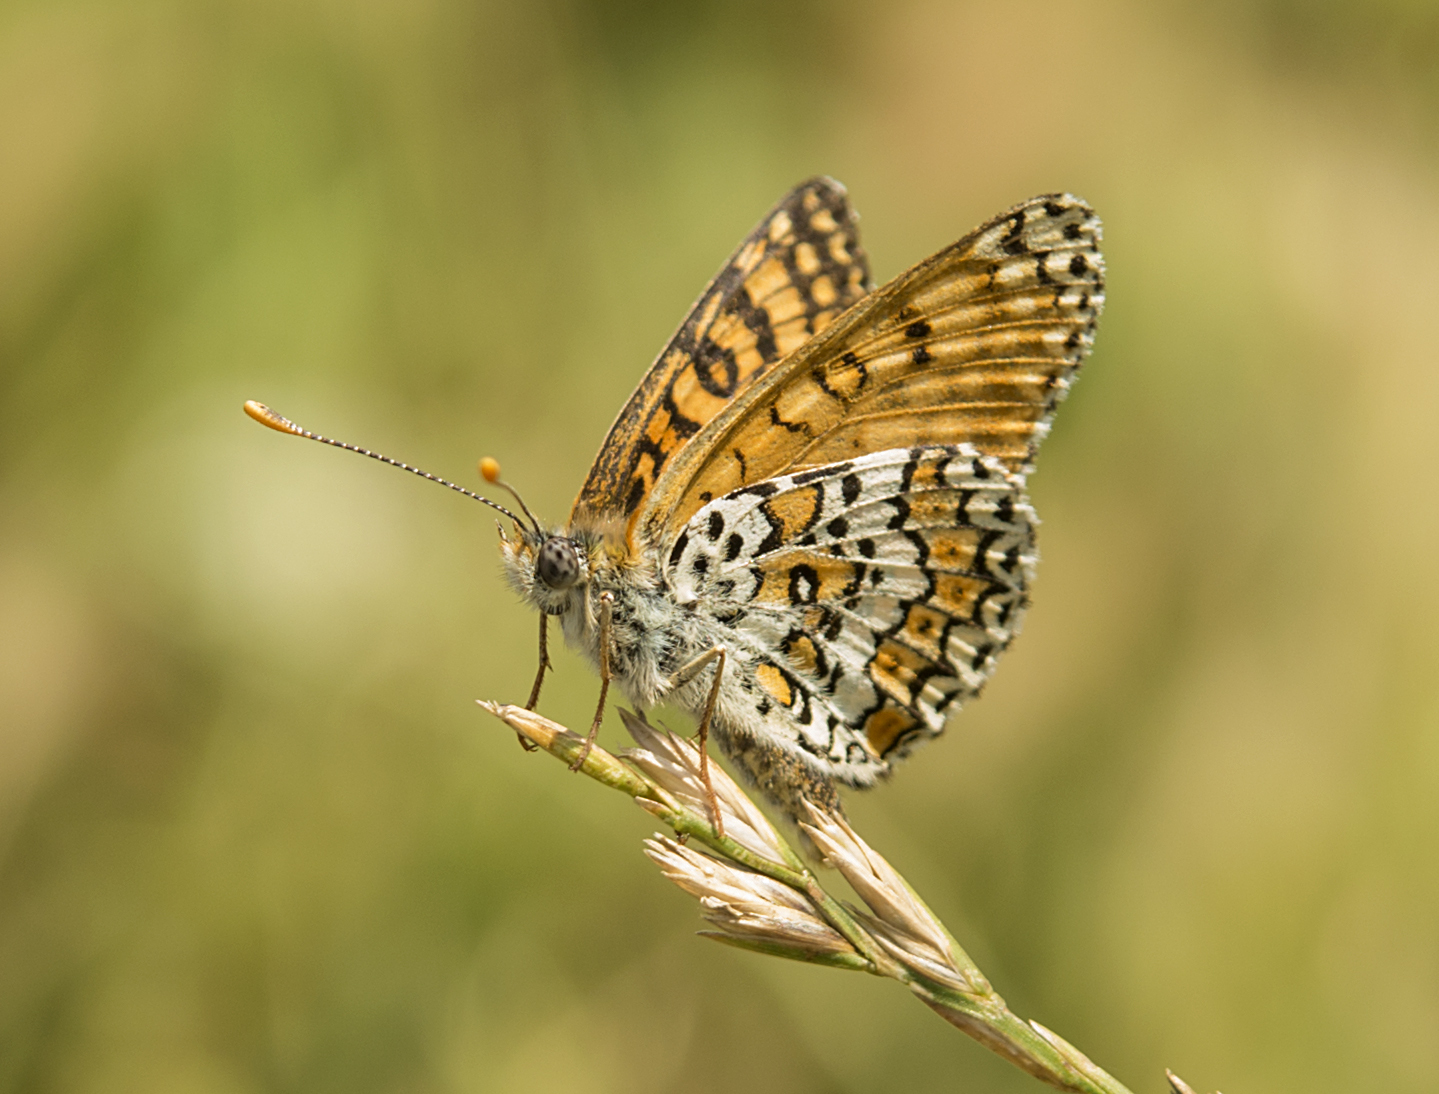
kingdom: Animalia
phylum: Arthropoda
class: Insecta
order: Lepidoptera
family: Nymphalidae
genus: Melitaea
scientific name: Melitaea cinxia
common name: Glanville fritillary
